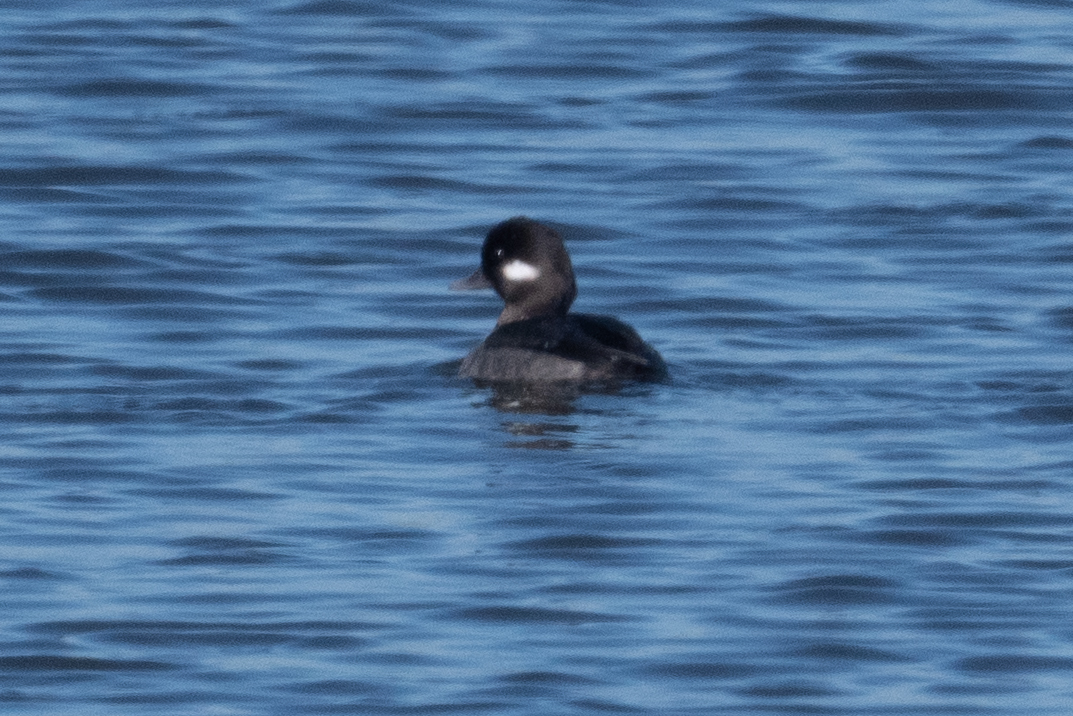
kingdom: Animalia
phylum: Chordata
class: Aves
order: Anseriformes
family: Anatidae
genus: Bucephala
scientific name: Bucephala albeola
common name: Bufflehead
